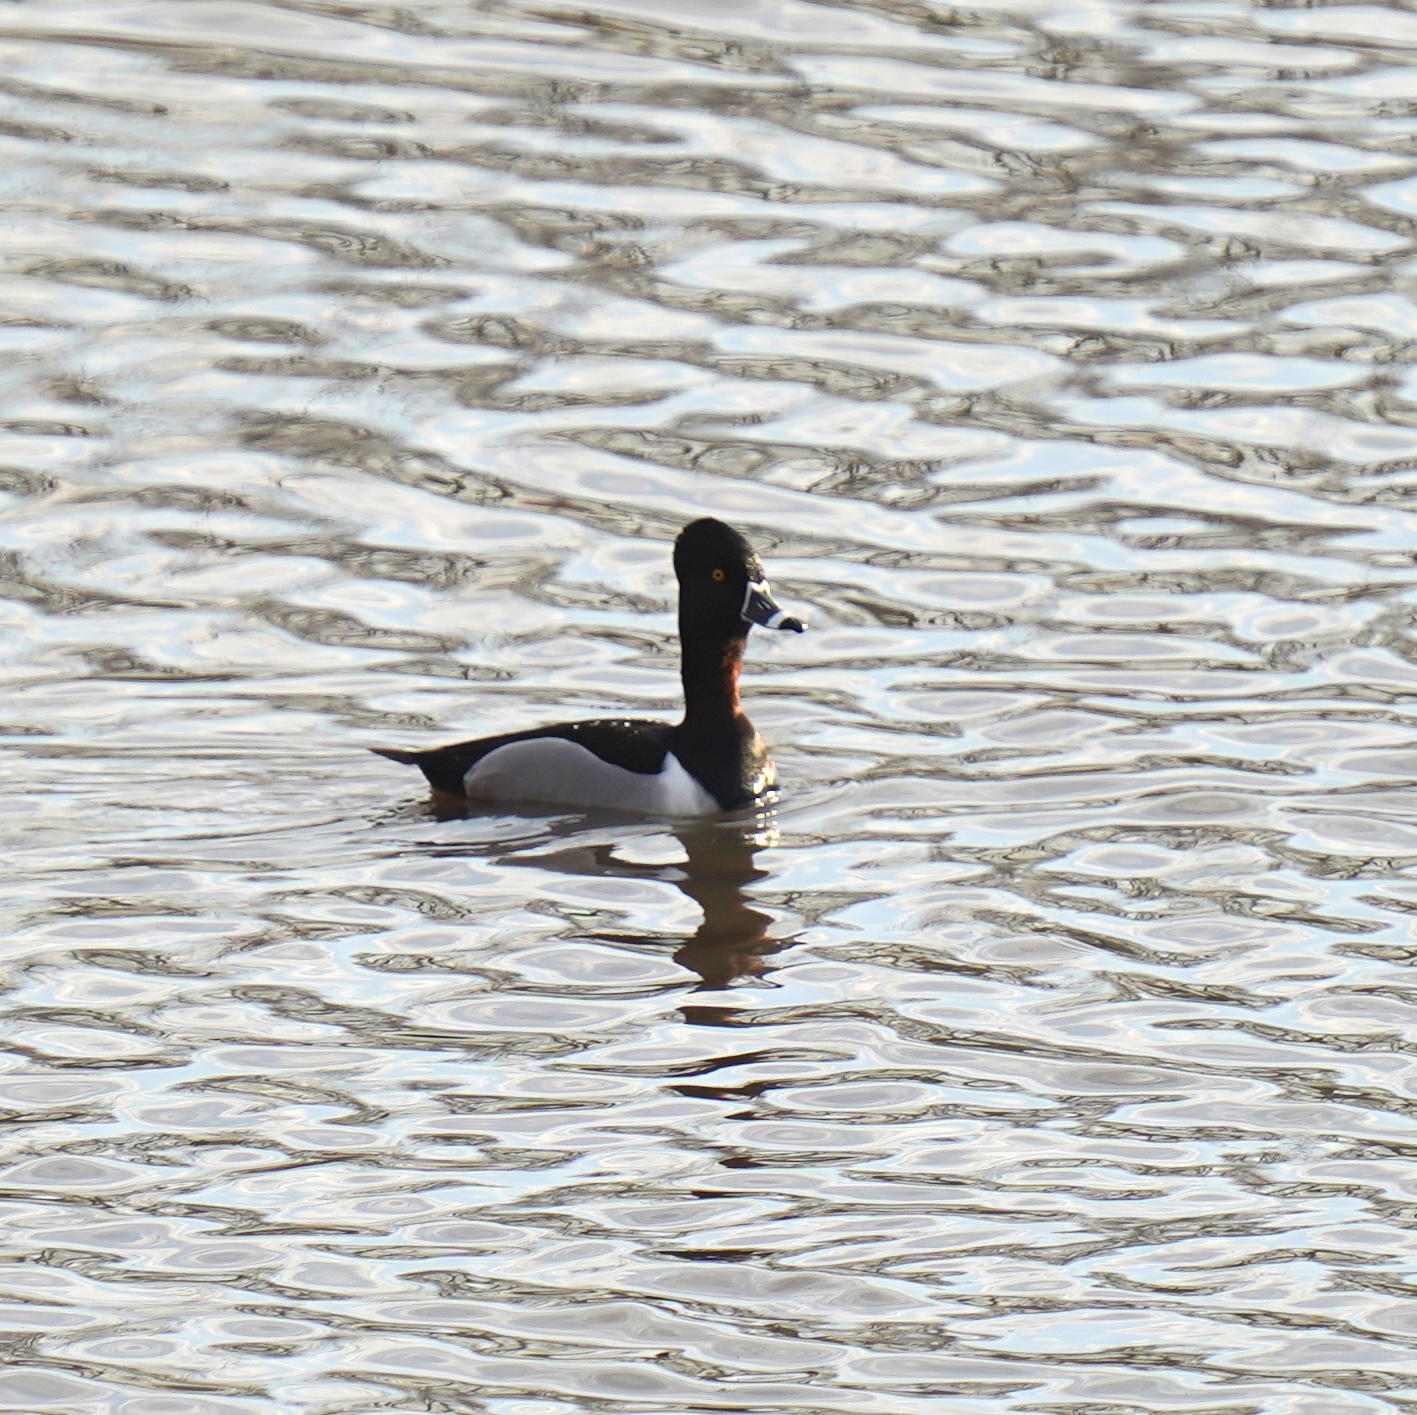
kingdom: Animalia
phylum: Chordata
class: Aves
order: Anseriformes
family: Anatidae
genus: Aythya
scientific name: Aythya collaris
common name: Ring-necked duck
